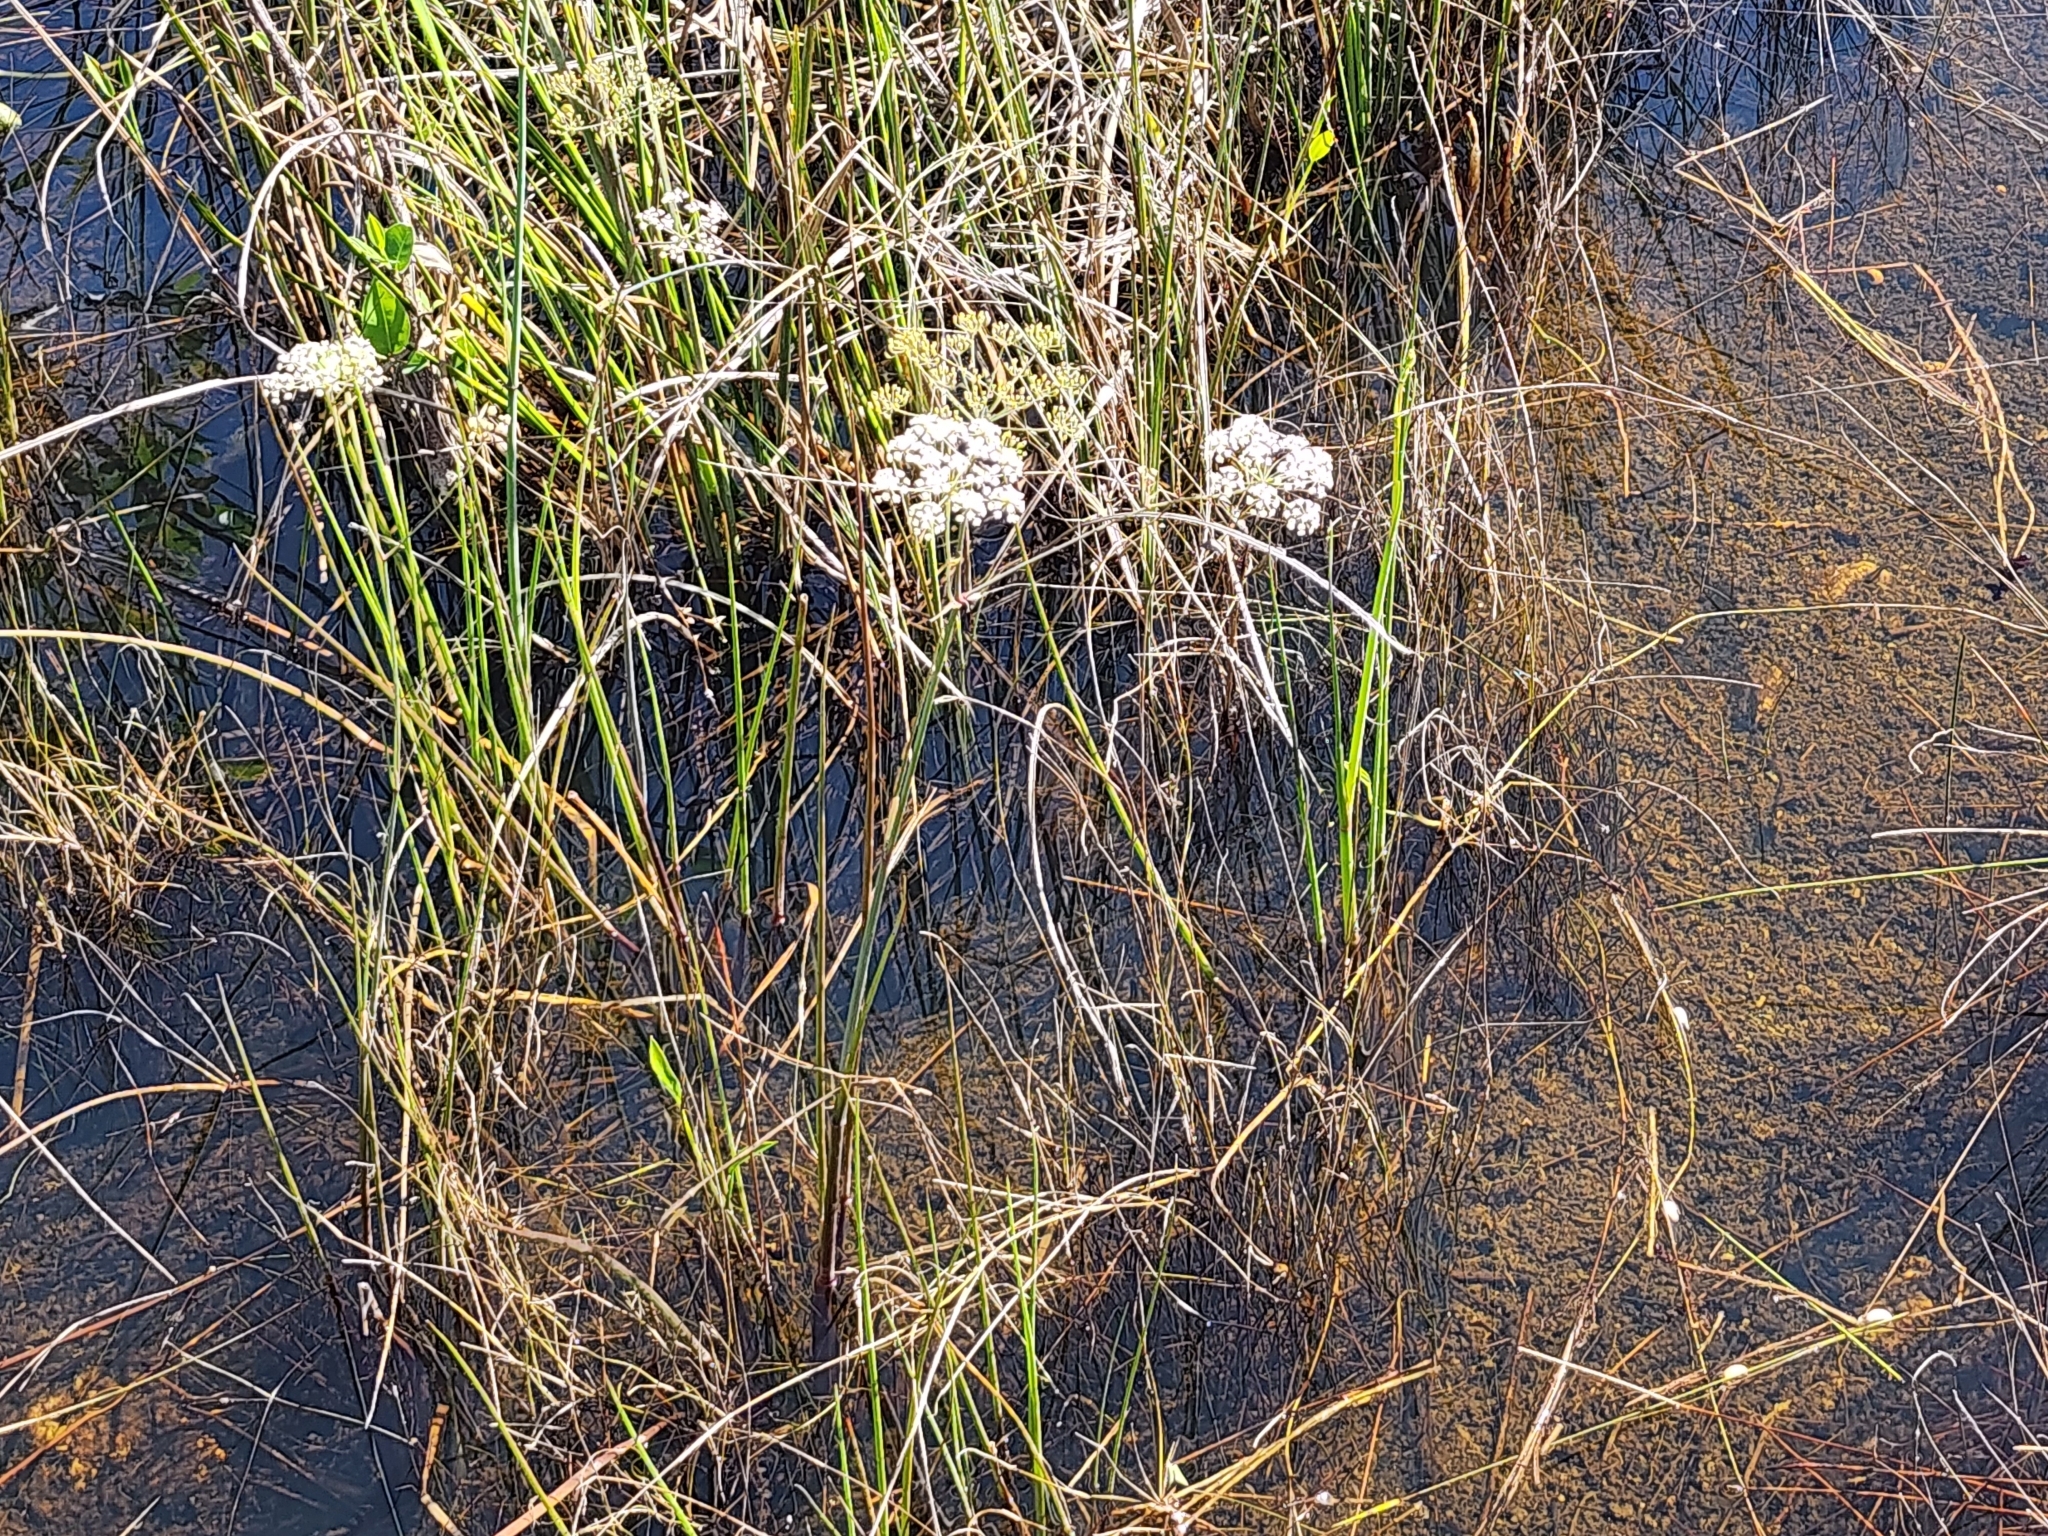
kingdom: Plantae
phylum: Tracheophyta
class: Magnoliopsida
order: Apiales
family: Apiaceae
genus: Tiedemannia
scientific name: Tiedemannia filiformis
